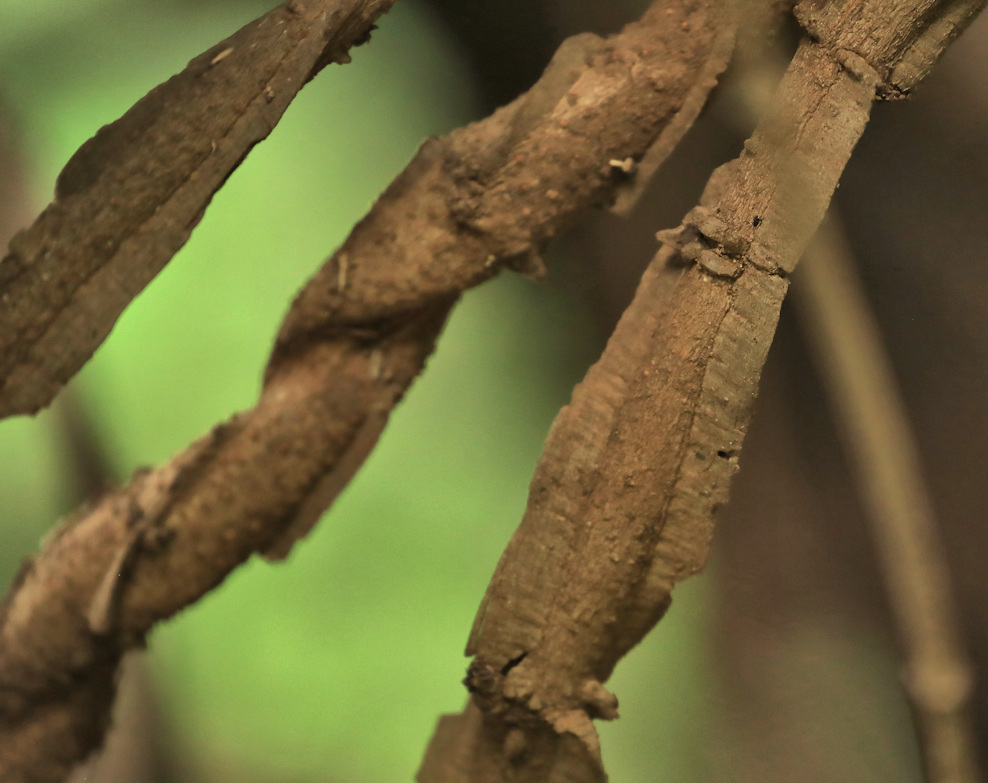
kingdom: Plantae
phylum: Tracheophyta
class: Magnoliopsida
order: Gentianales
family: Apocynaceae
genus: Secamone
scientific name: Secamone schweinfurthii
